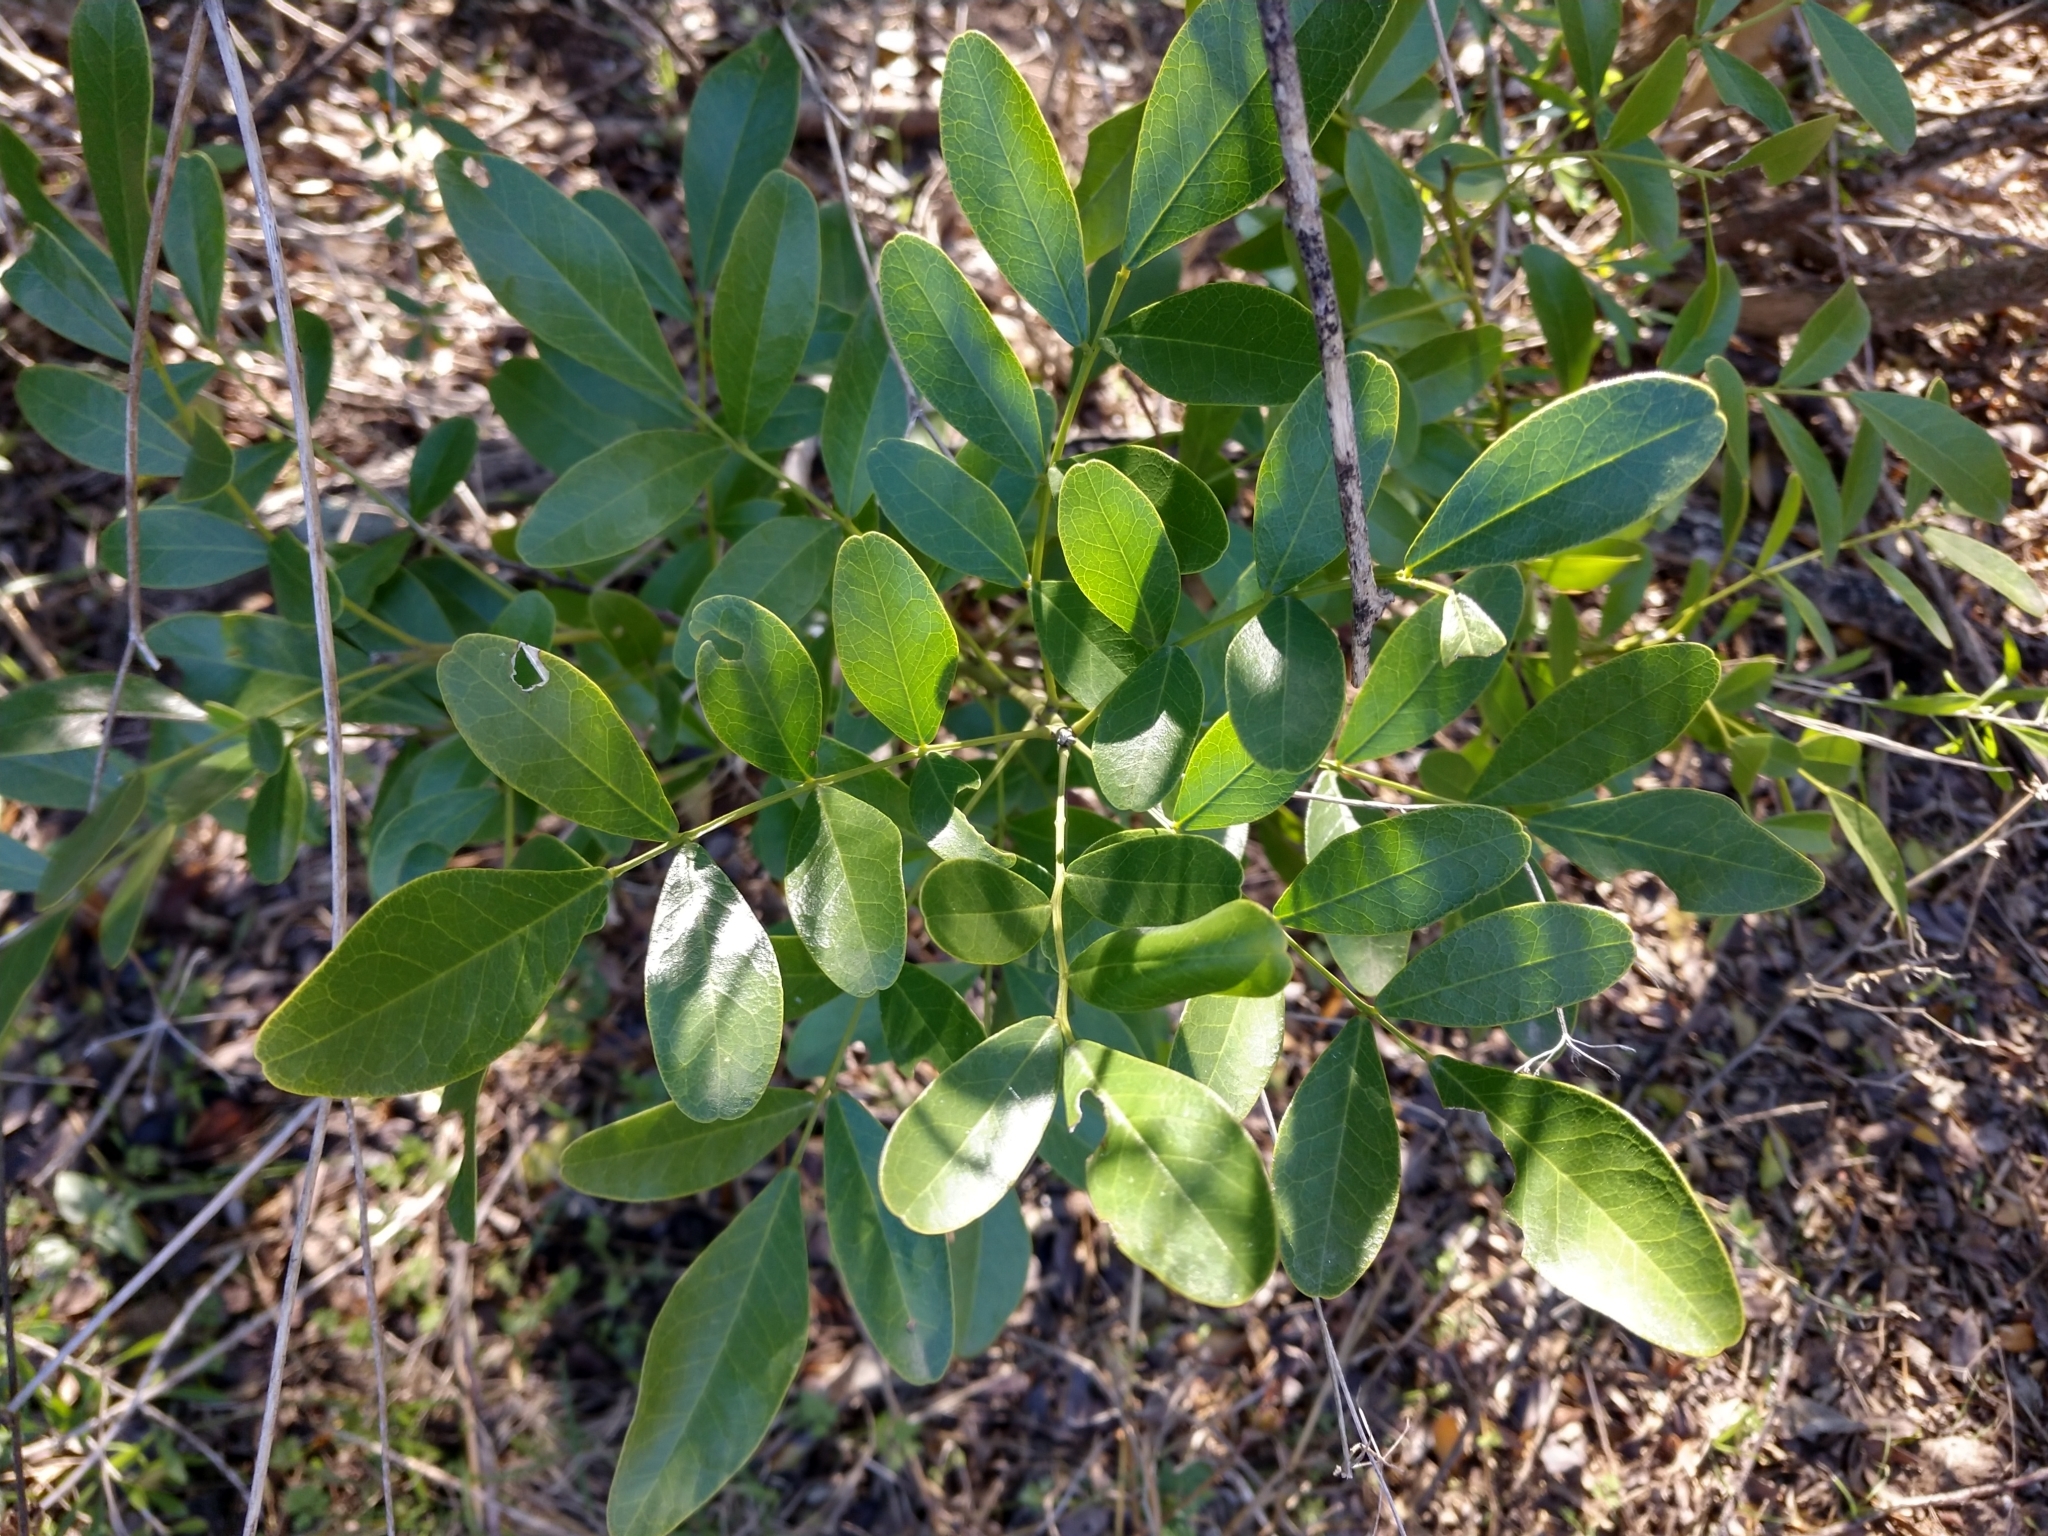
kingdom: Plantae
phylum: Tracheophyta
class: Magnoliopsida
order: Fabales
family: Fabaceae
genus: Dermatophyllum
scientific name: Dermatophyllum secundiflorum
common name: Texas-mountain-laurel
